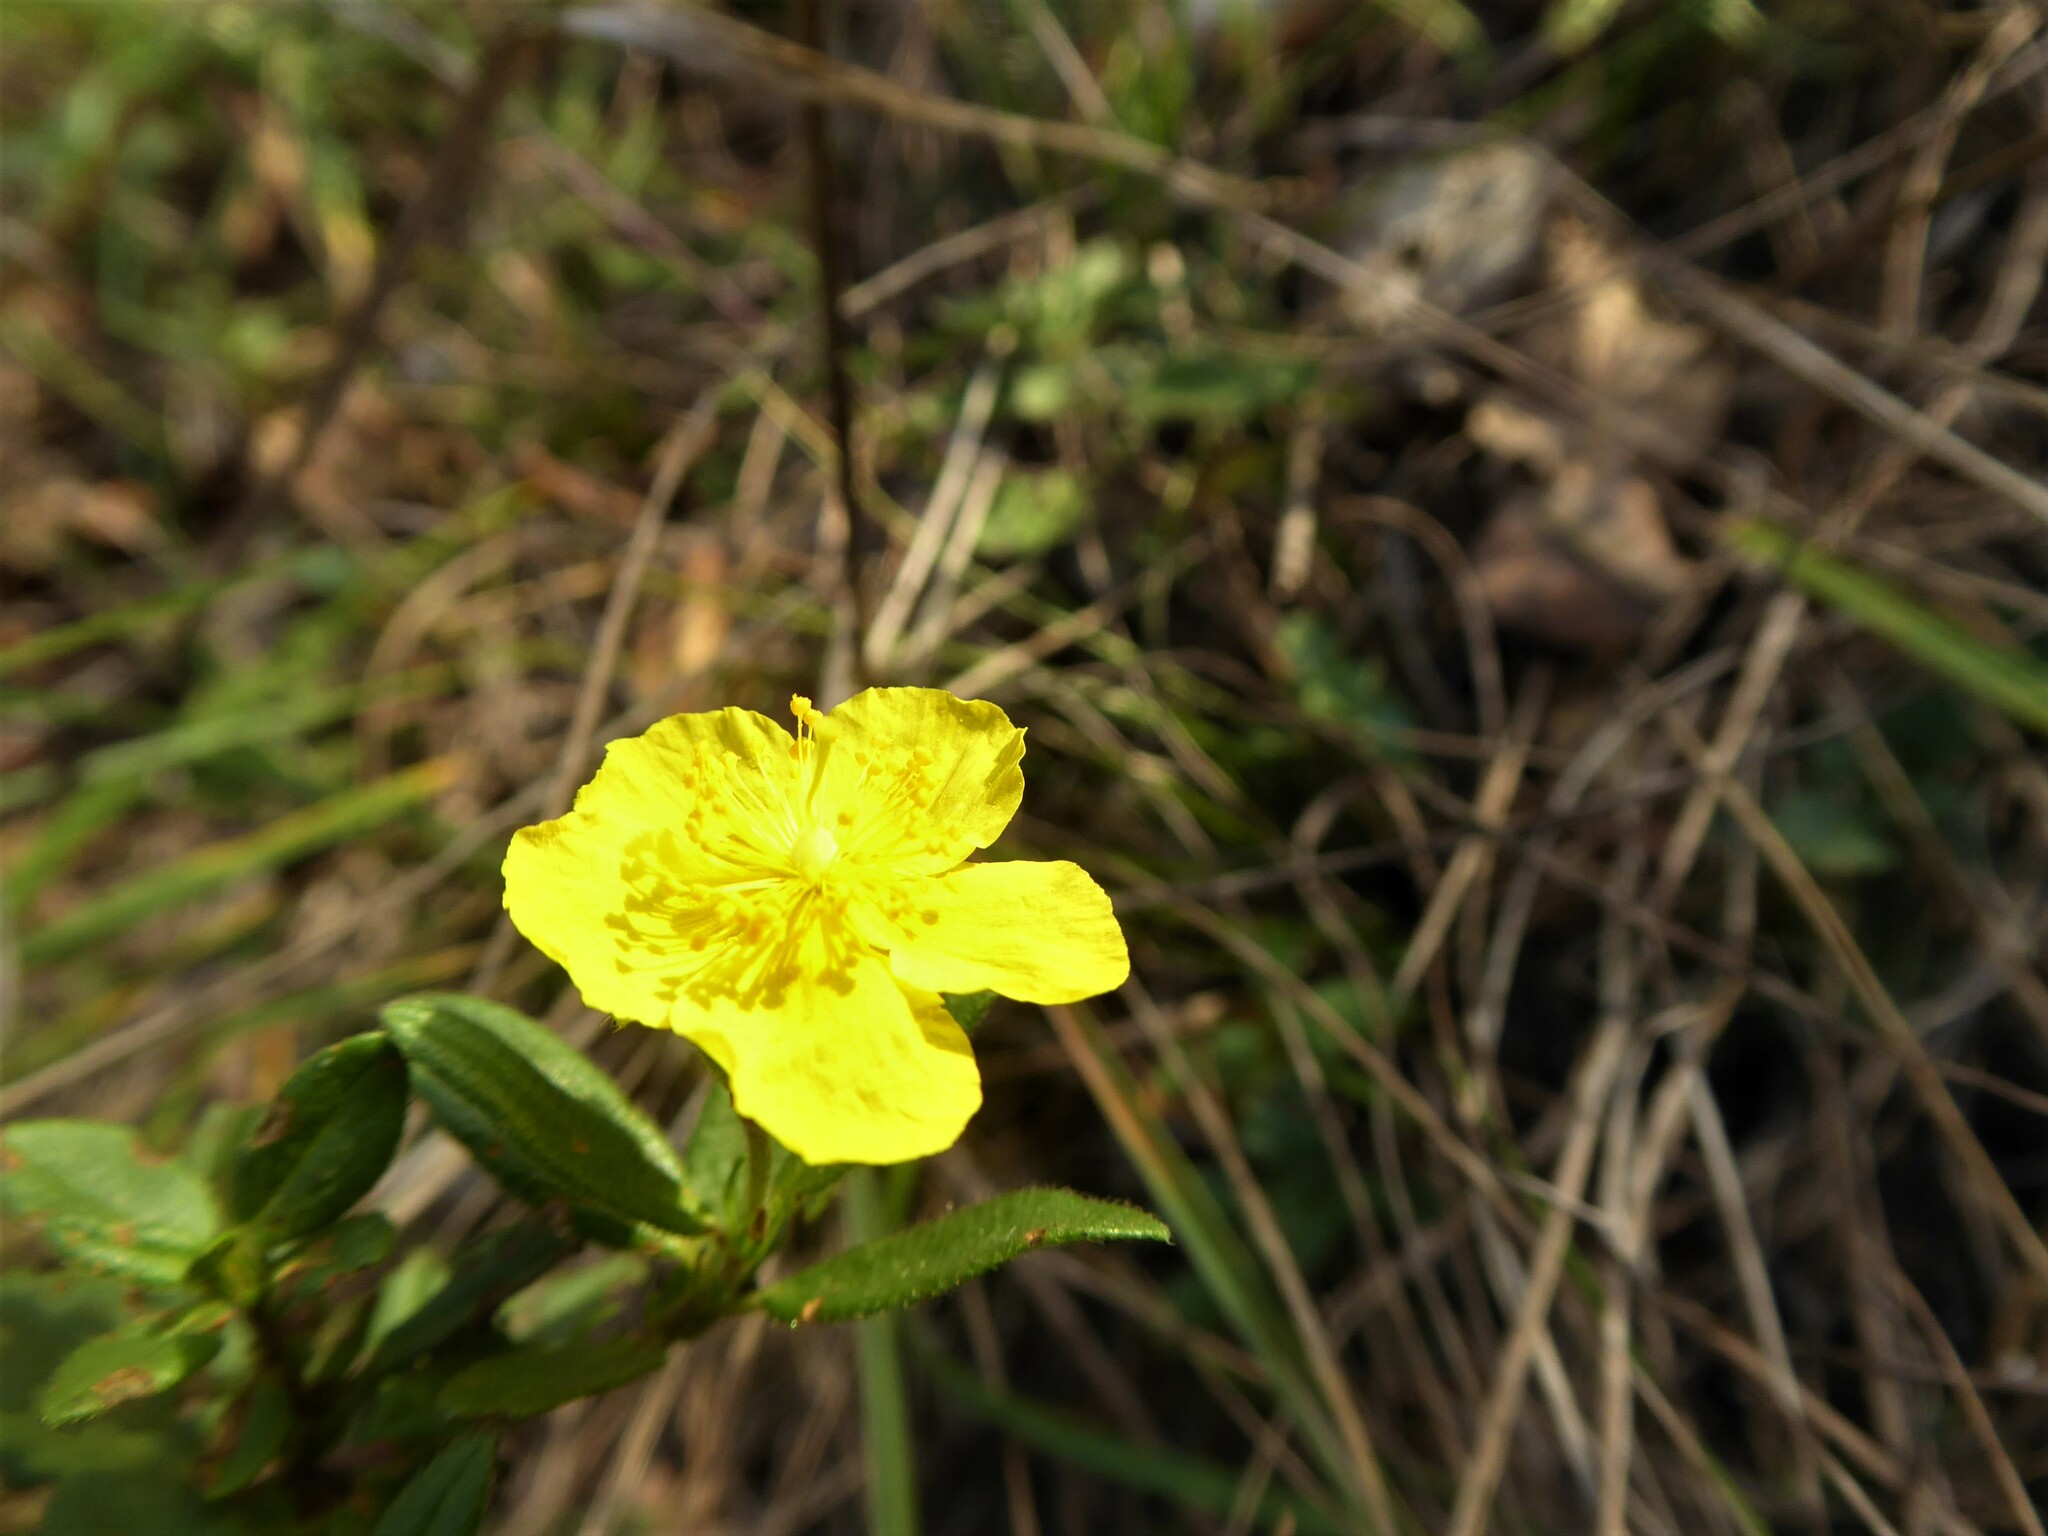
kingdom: Plantae
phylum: Tracheophyta
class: Magnoliopsida
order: Malvales
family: Cistaceae
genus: Helianthemum
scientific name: Helianthemum nummularium
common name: Common rock-rose
